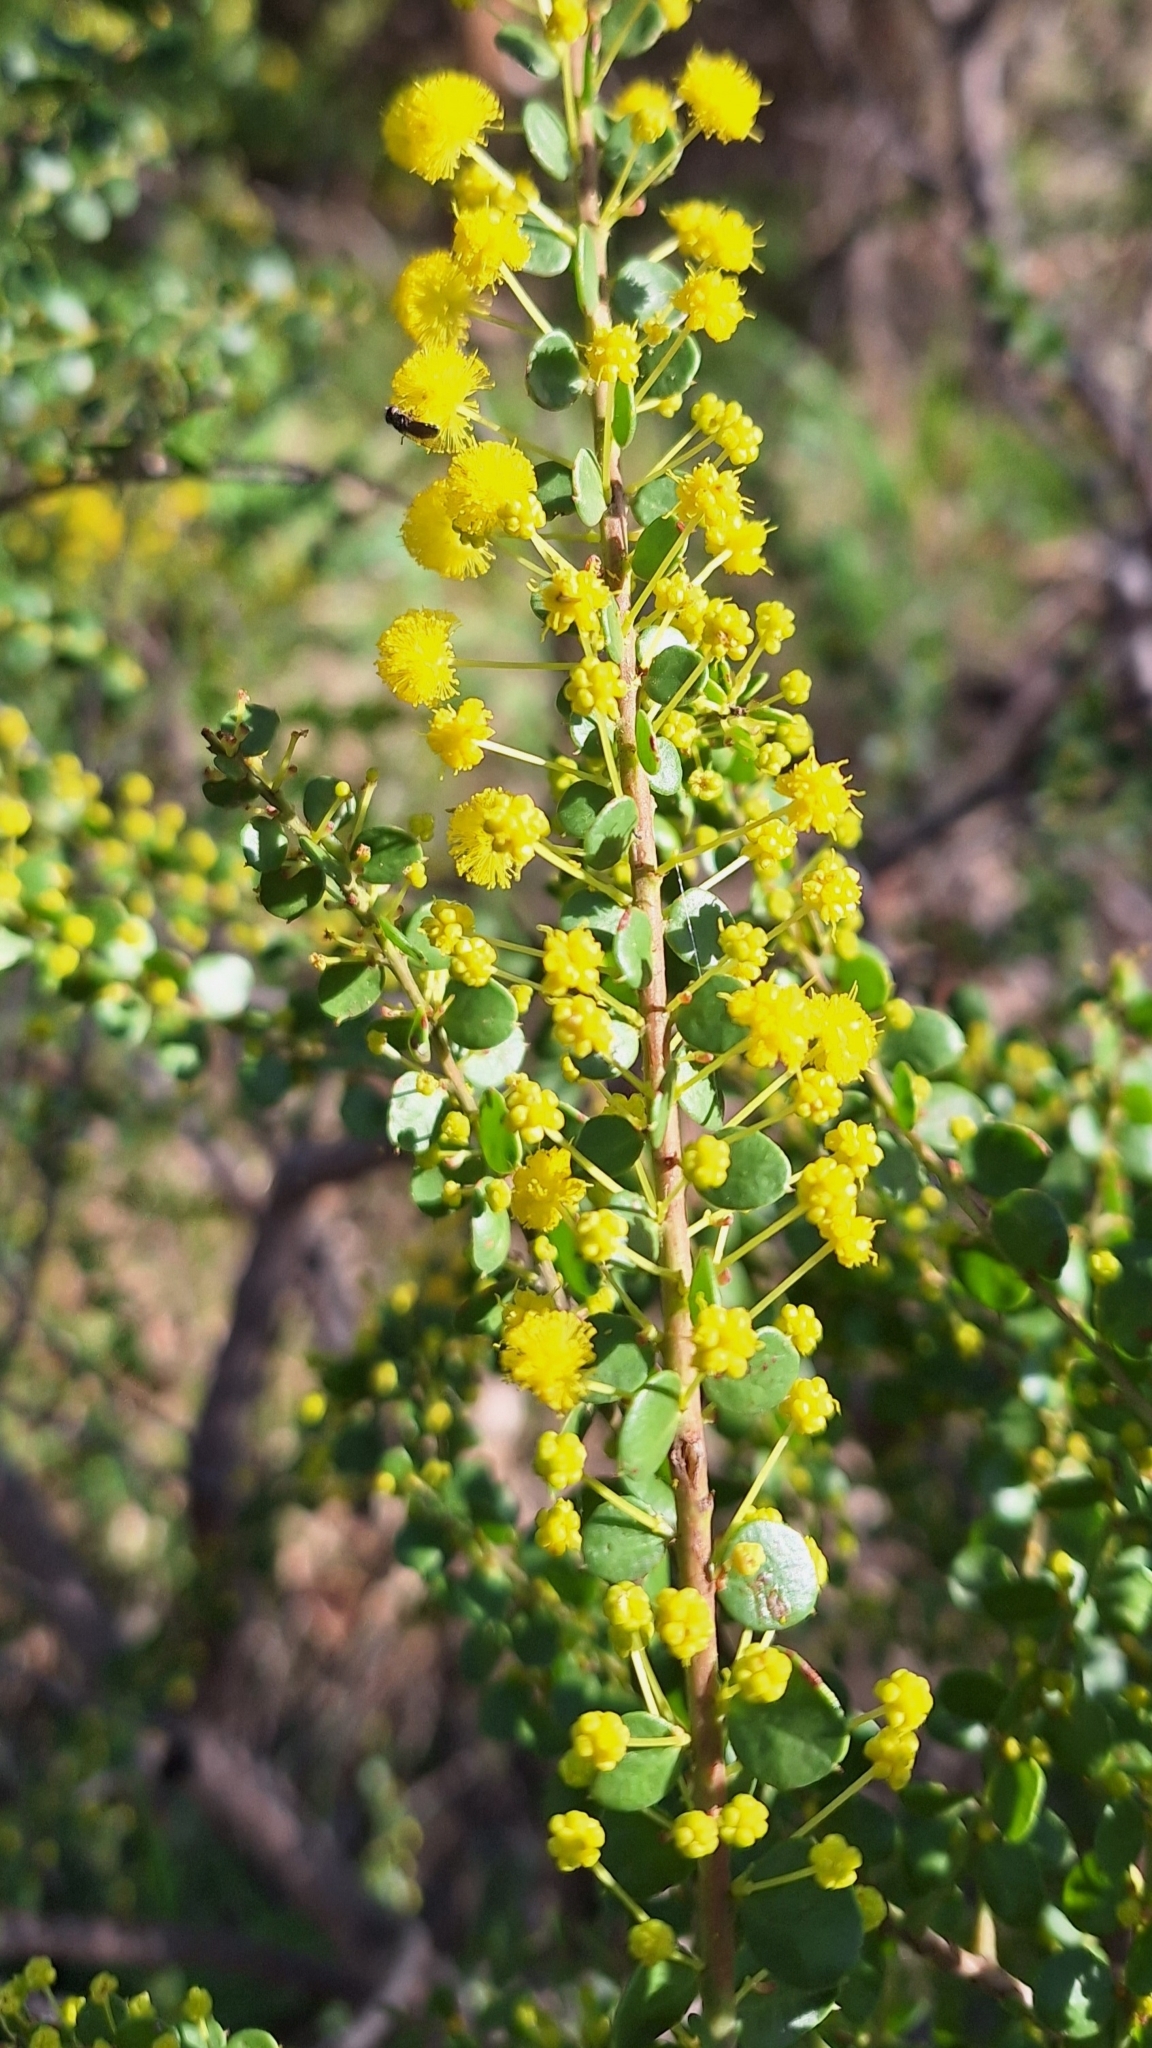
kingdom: Plantae
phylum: Tracheophyta
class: Magnoliopsida
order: Fabales
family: Fabaceae
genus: Acacia
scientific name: Acacia acinacea
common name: Gold-dust acacia
